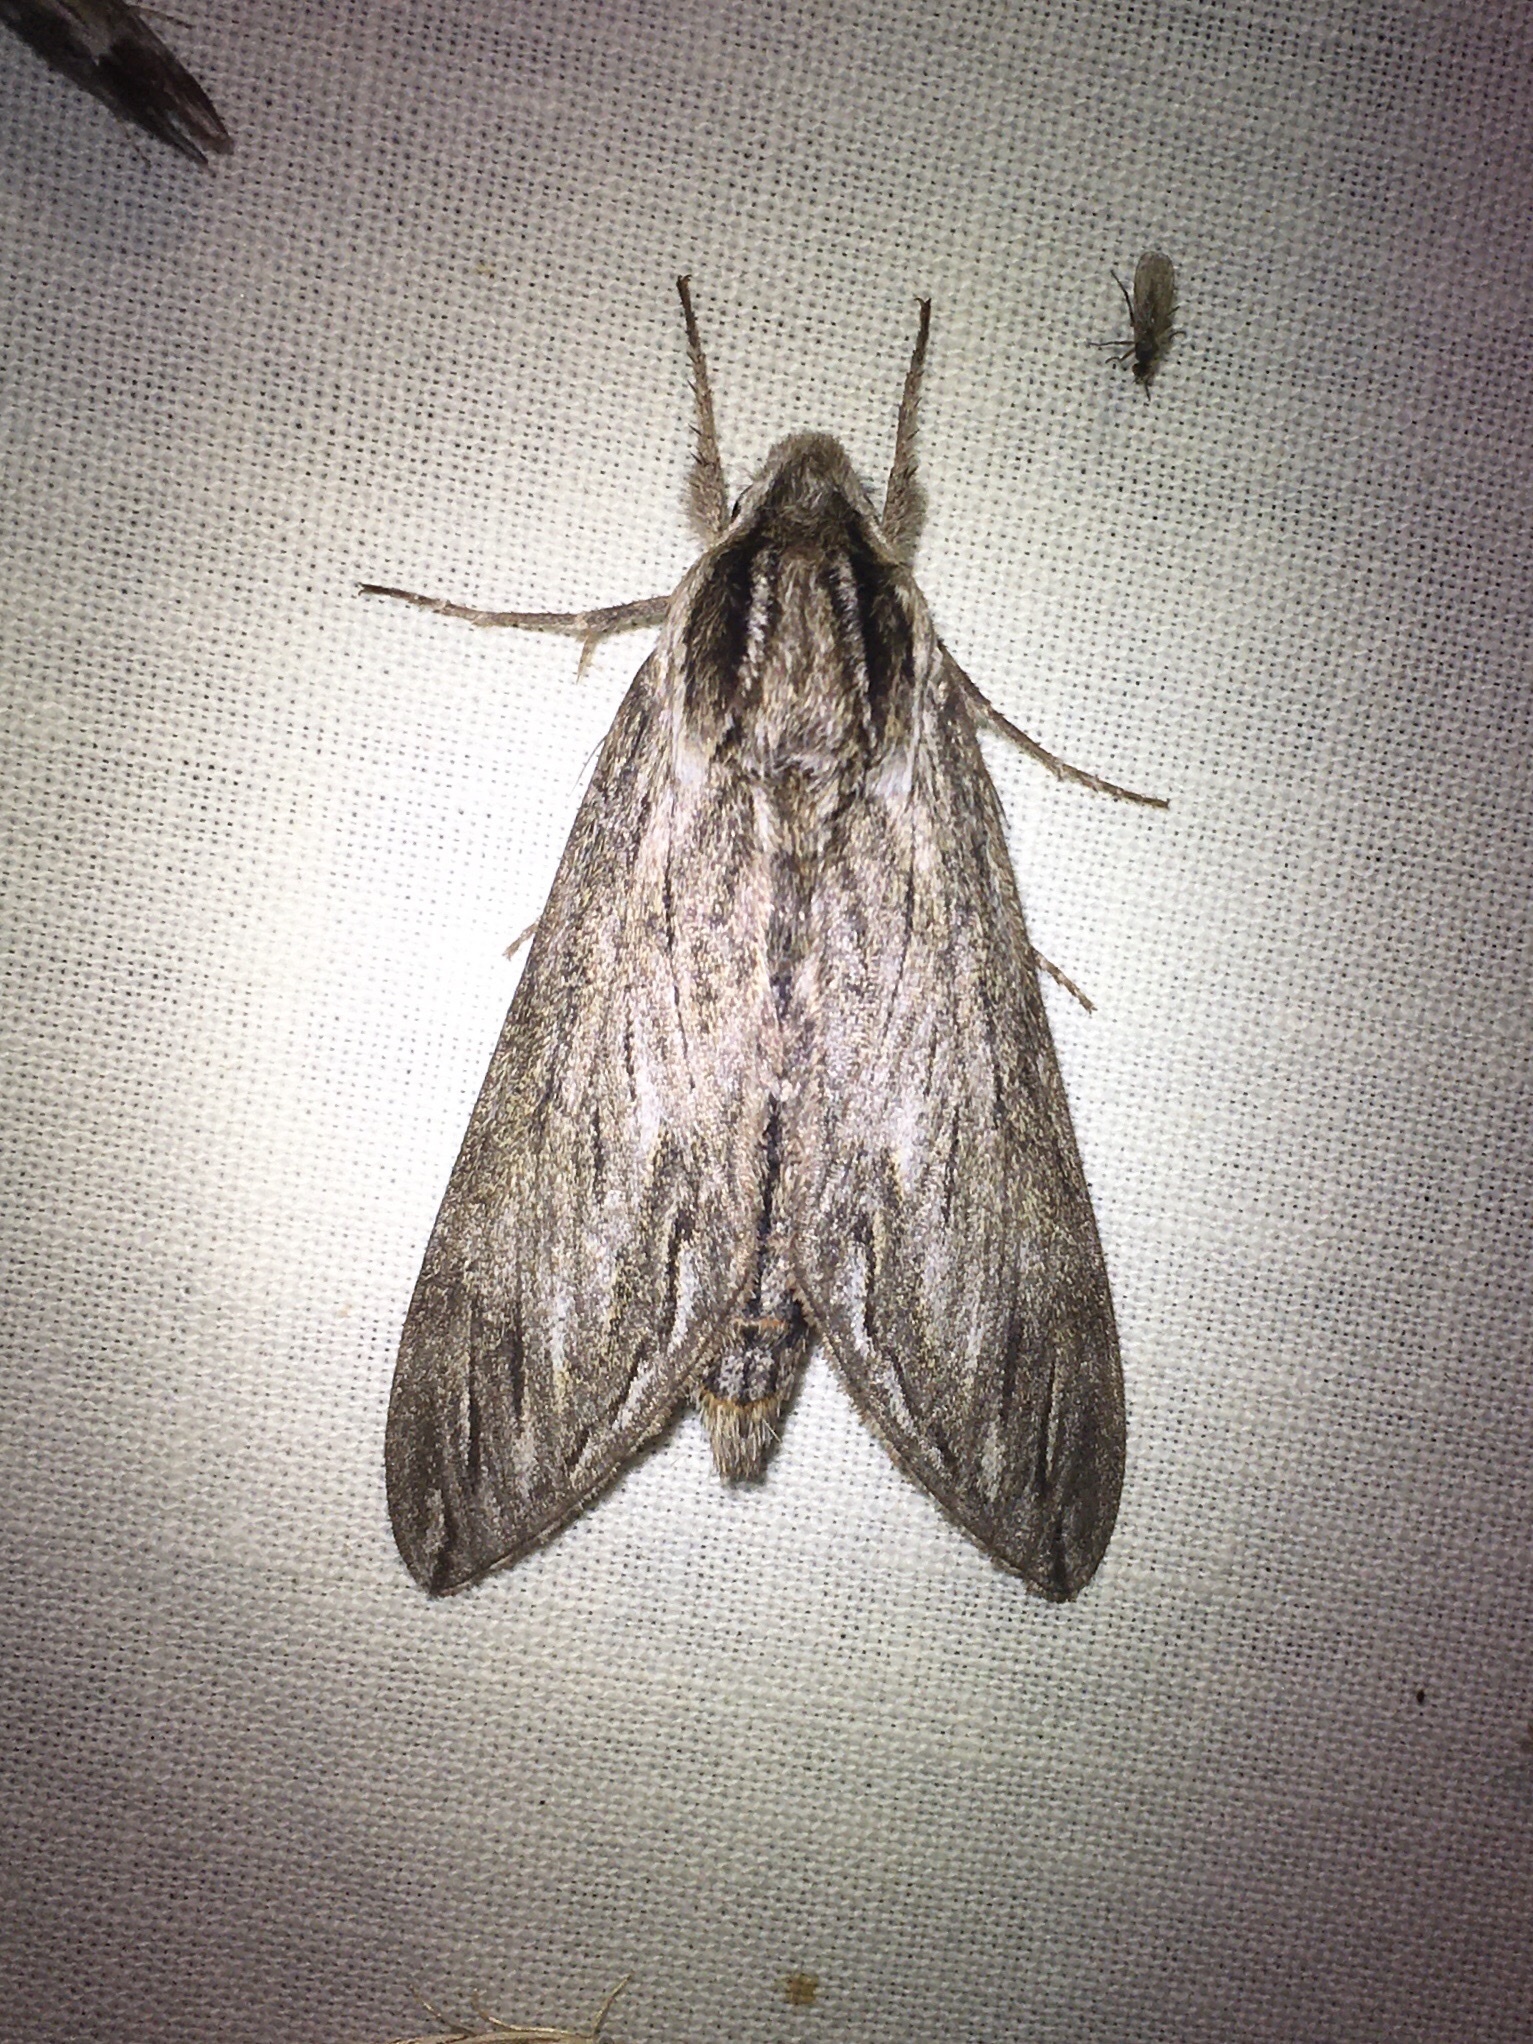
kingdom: Animalia
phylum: Arthropoda
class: Insecta
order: Lepidoptera
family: Sphingidae
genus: Sphinx
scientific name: Sphinx canadensis
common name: Canadian sphinx
